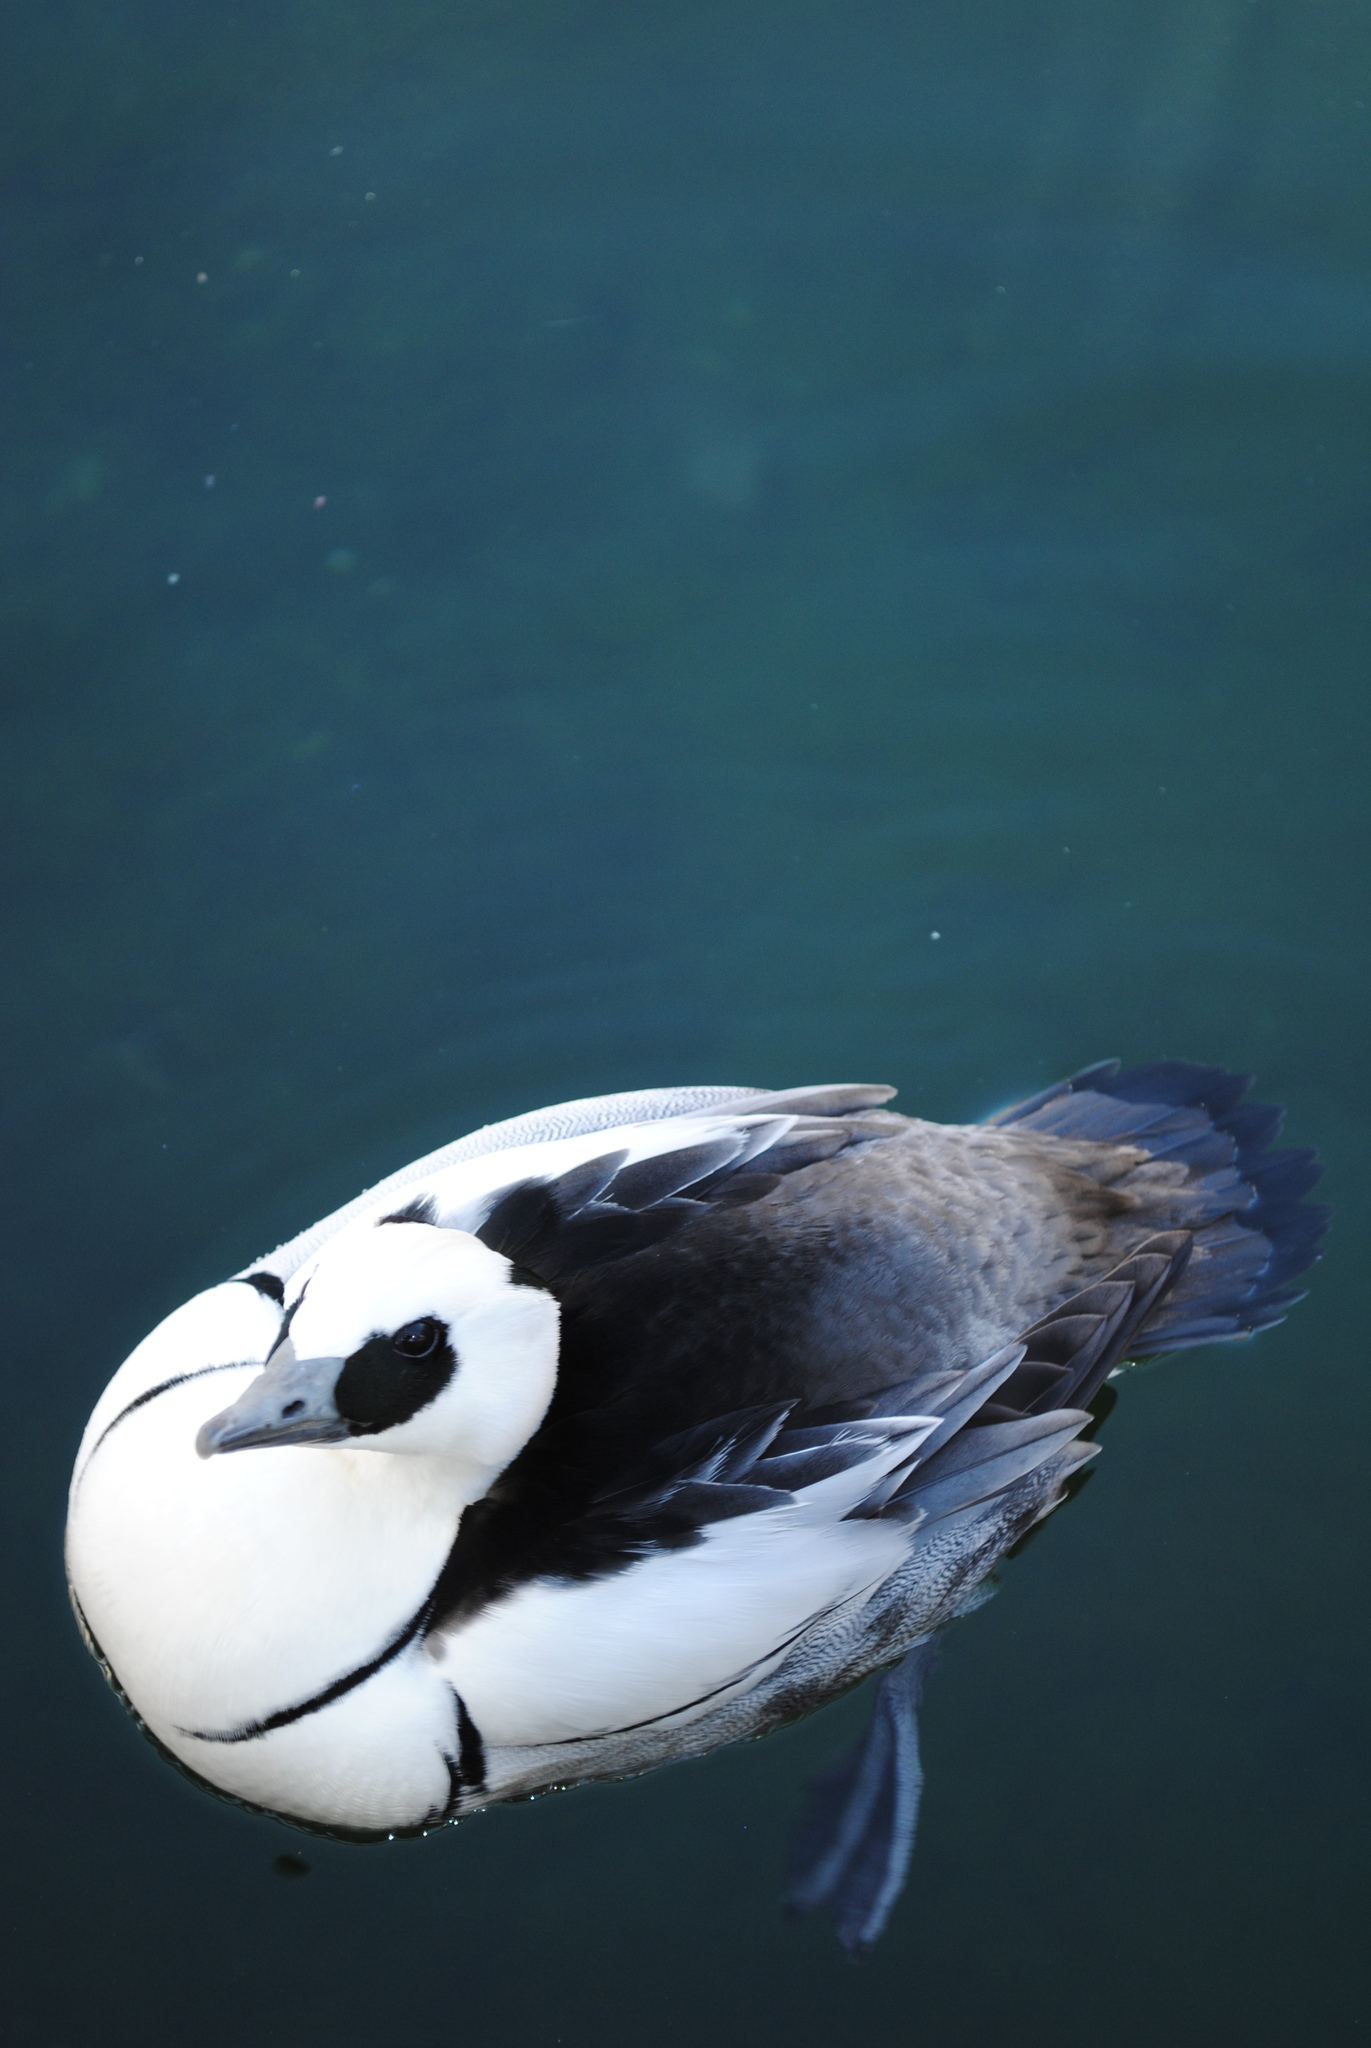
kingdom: Animalia
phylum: Chordata
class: Aves
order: Anseriformes
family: Anatidae
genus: Mergellus
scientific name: Mergellus albellus
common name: Smew
